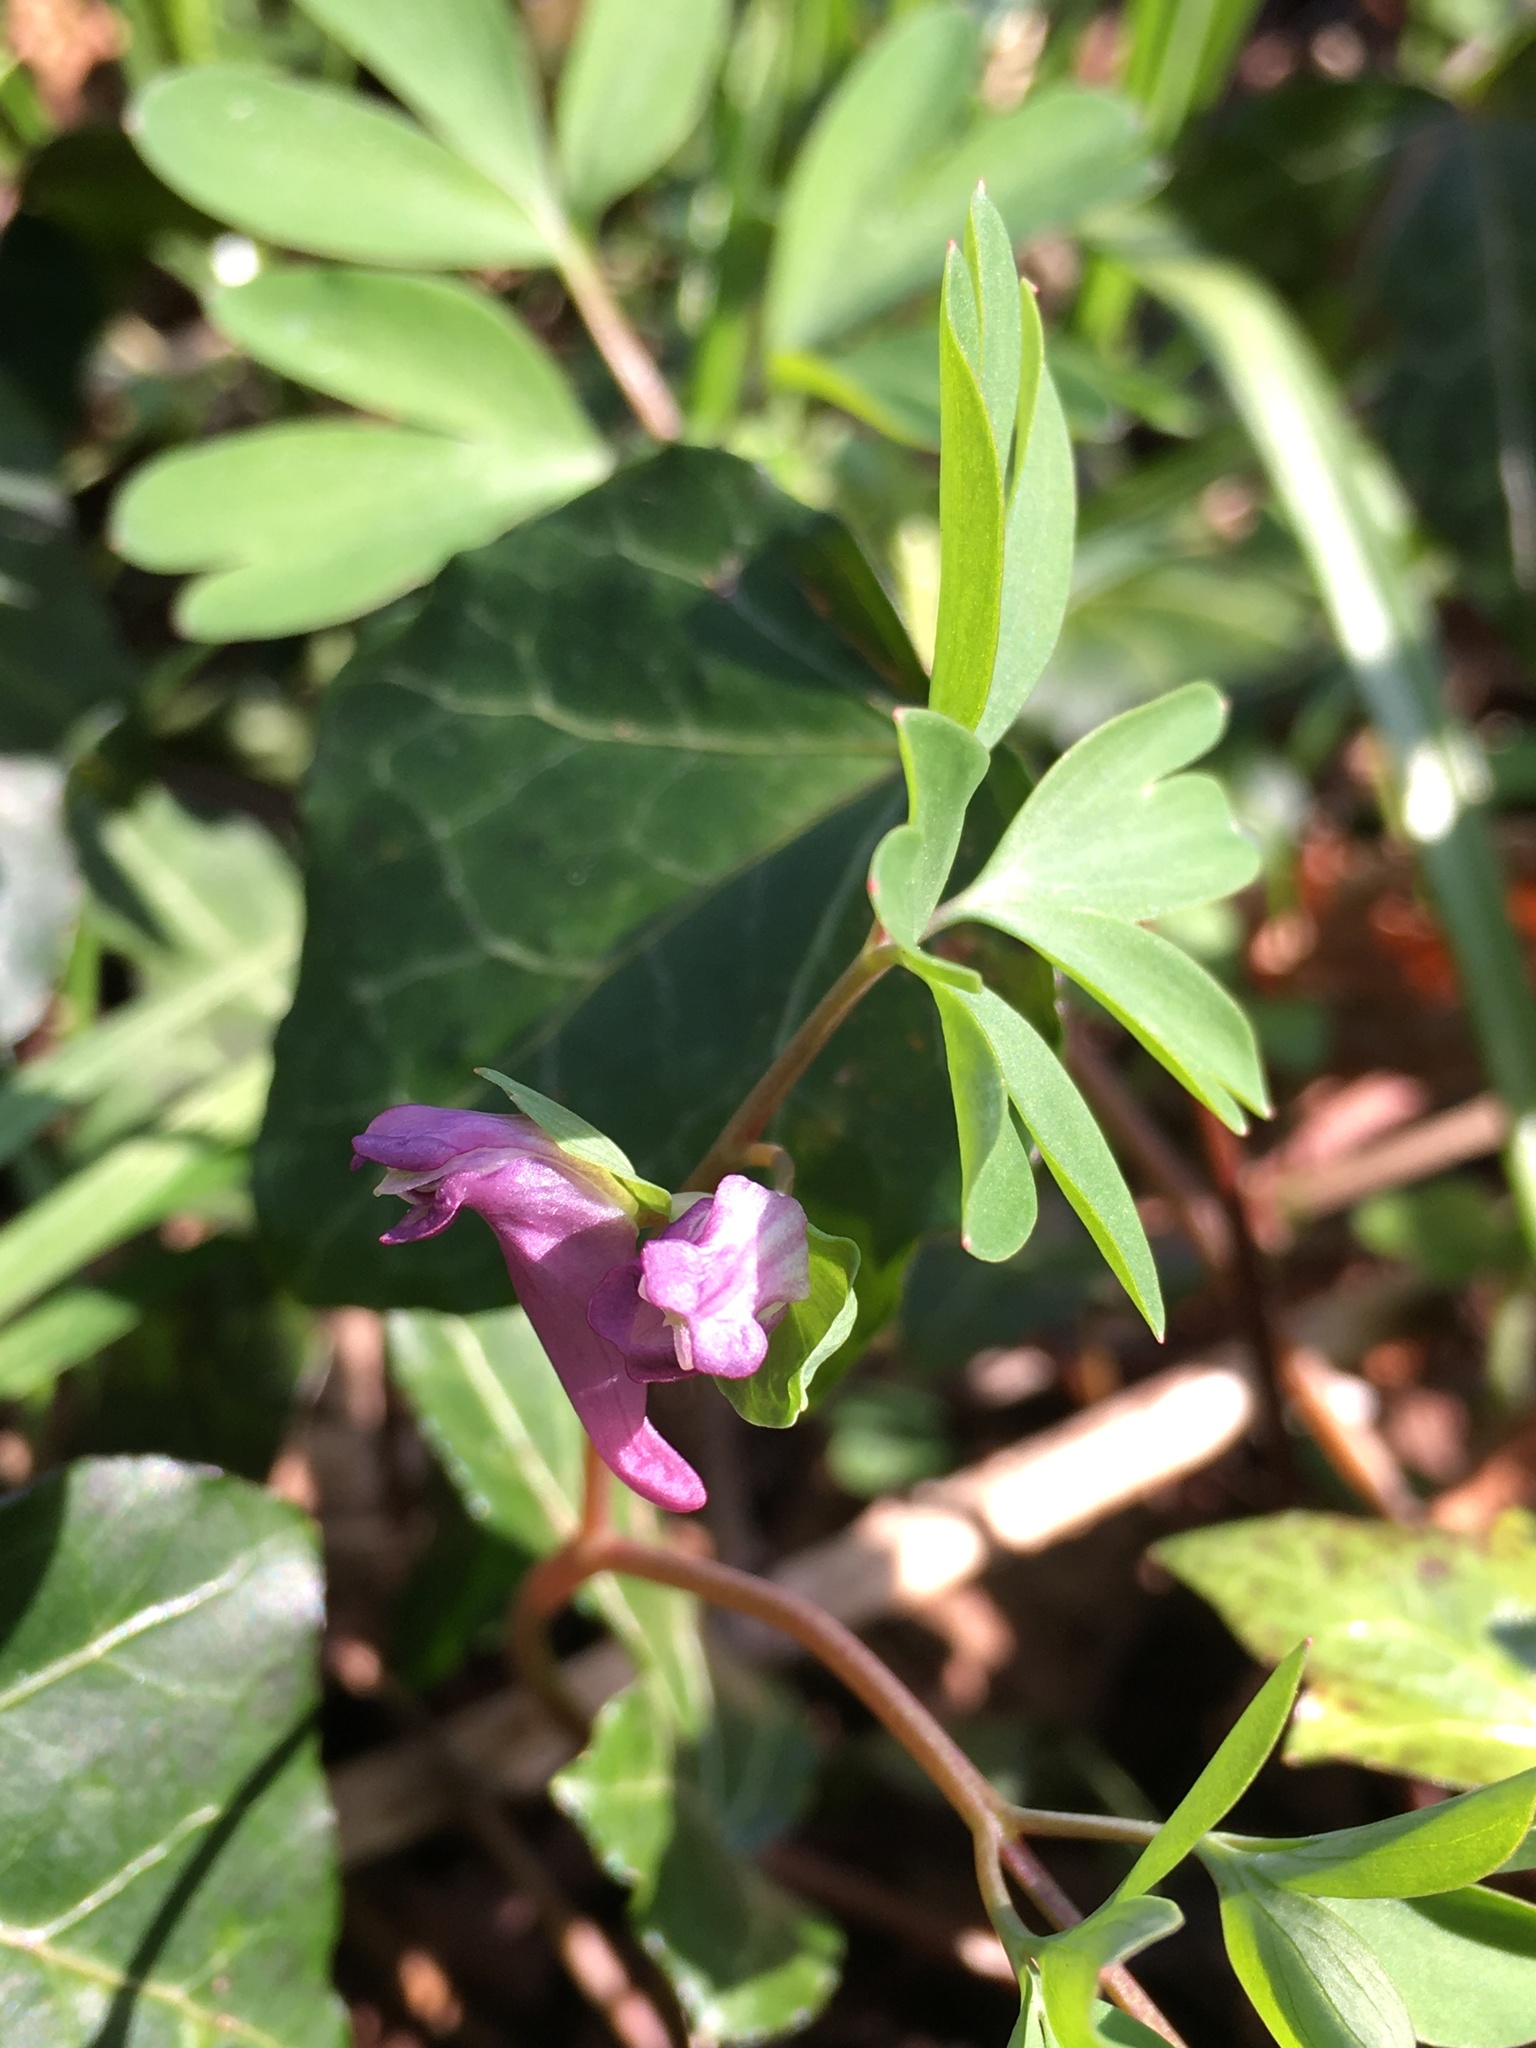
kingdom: Plantae
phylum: Tracheophyta
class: Magnoliopsida
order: Ranunculales
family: Papaveraceae
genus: Corydalis
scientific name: Corydalis intermedia
